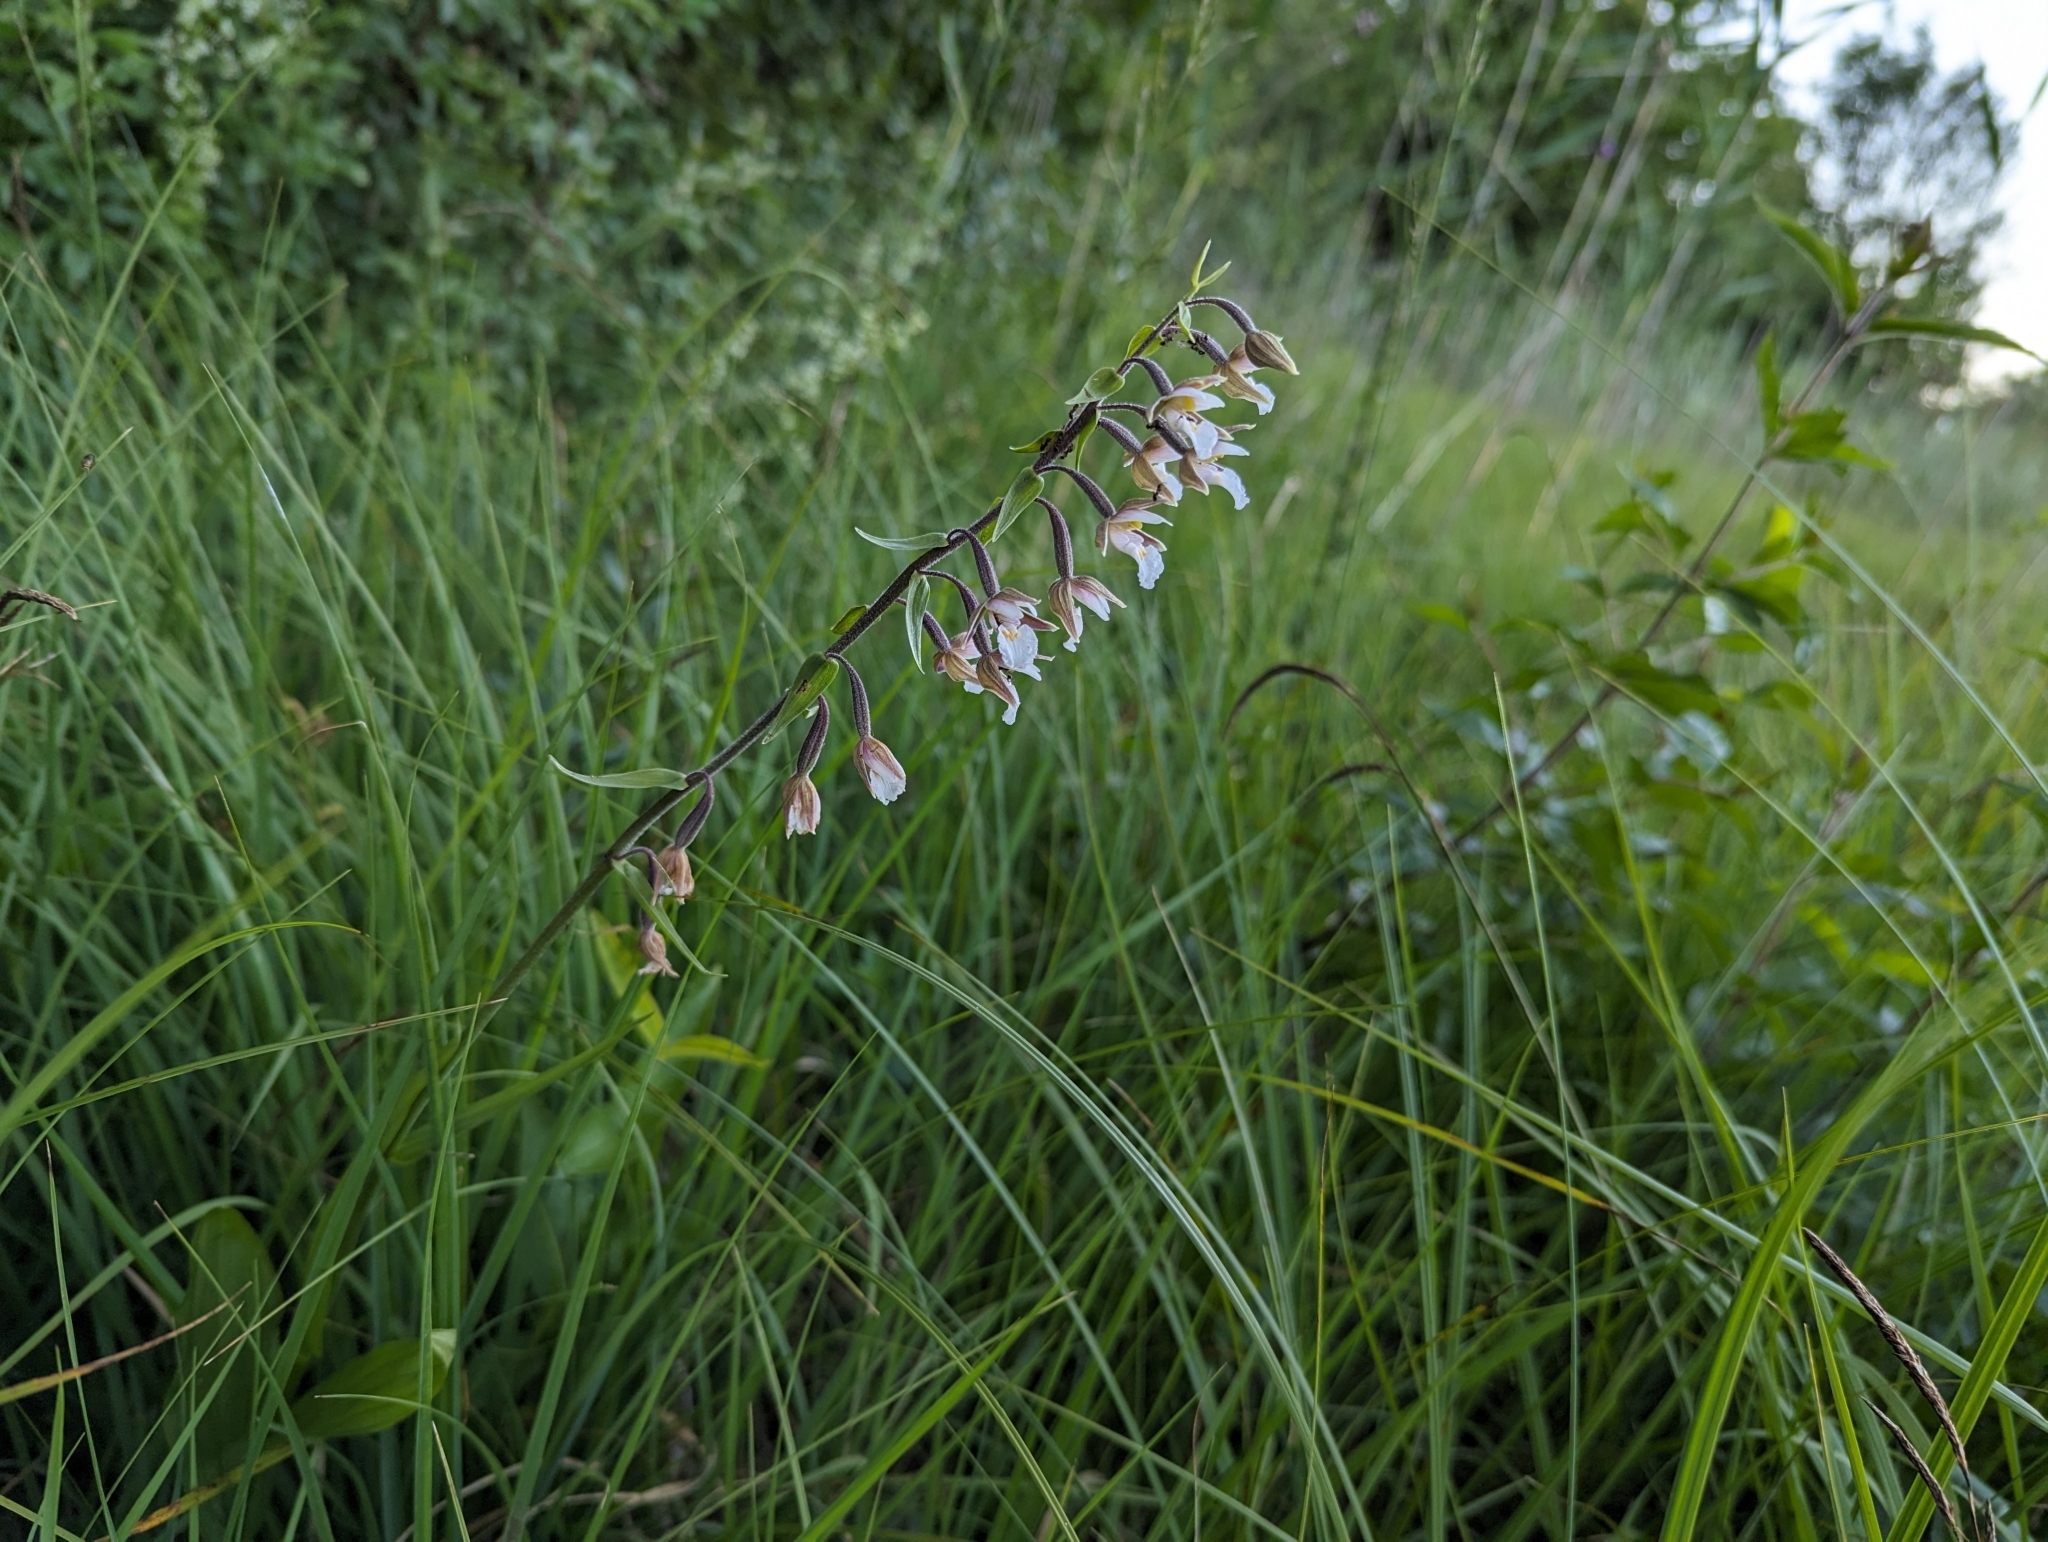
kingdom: Plantae
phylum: Tracheophyta
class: Liliopsida
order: Asparagales
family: Orchidaceae
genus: Epipactis
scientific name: Epipactis palustris
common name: Marsh helleborine
